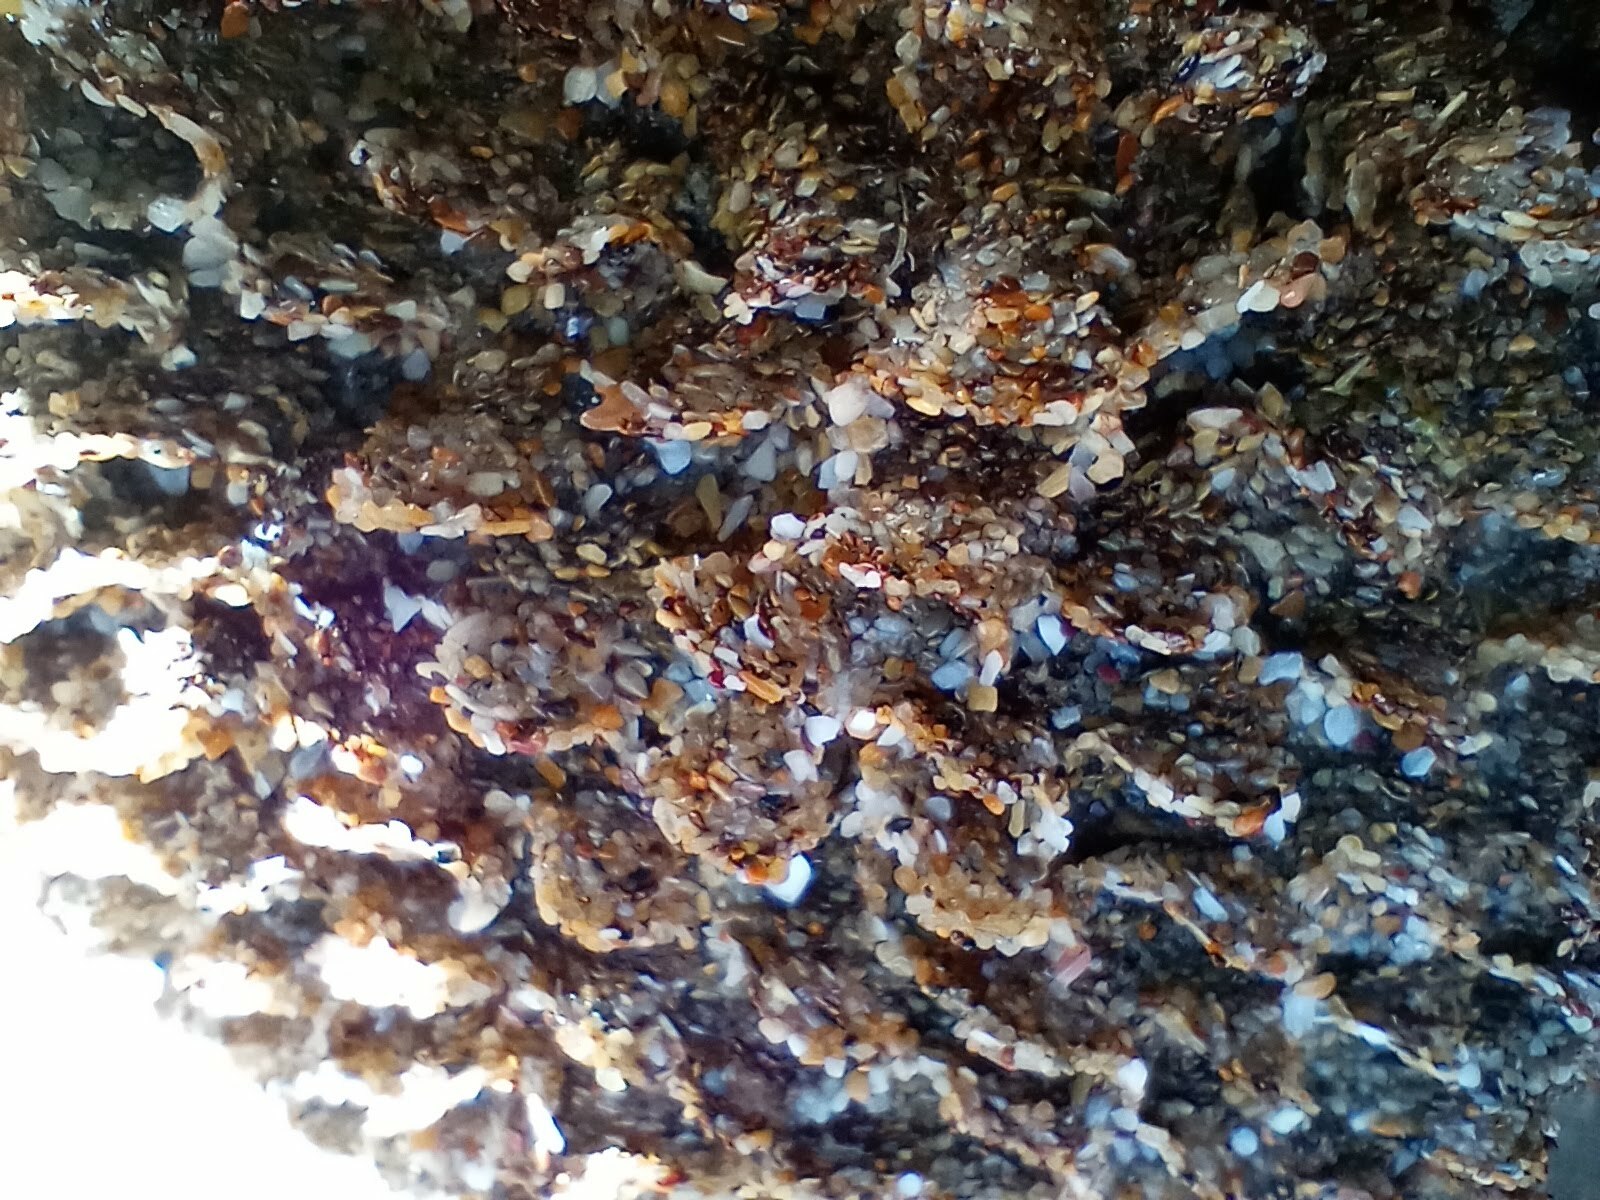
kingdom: Animalia
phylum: Annelida
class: Polychaeta
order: Sabellida
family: Sabellariidae
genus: Phragmatopoma
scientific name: Phragmatopoma californica
